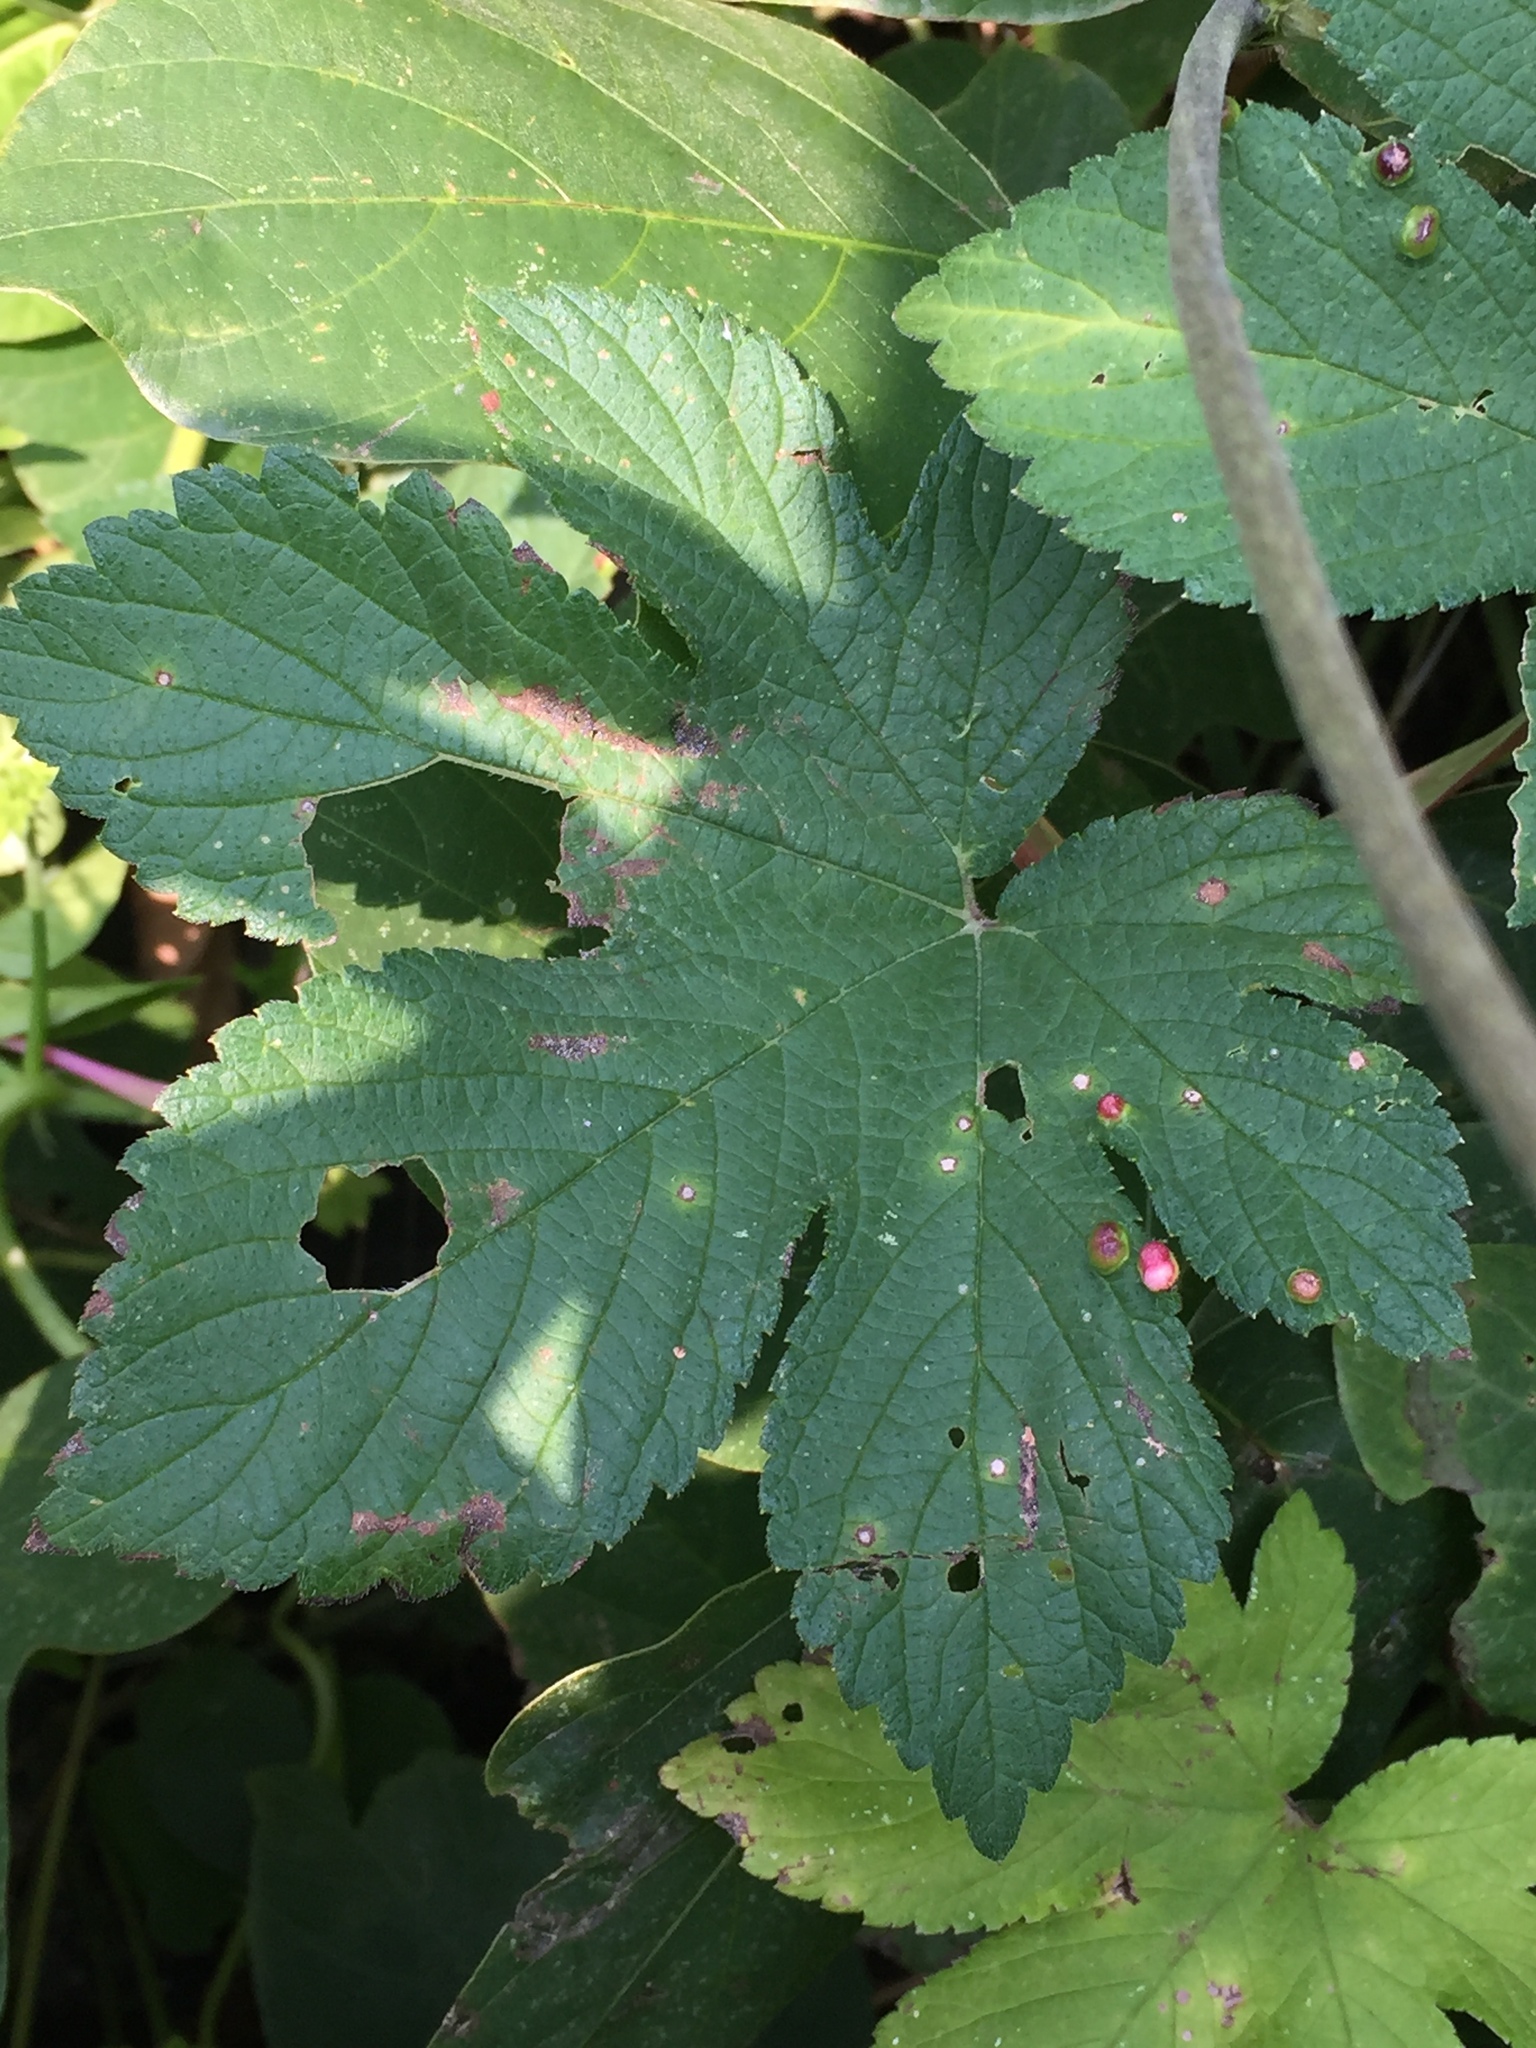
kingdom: Plantae
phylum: Tracheophyta
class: Magnoliopsida
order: Rosales
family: Cannabaceae
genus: Humulus
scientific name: Humulus scandens
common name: Japanese hop
